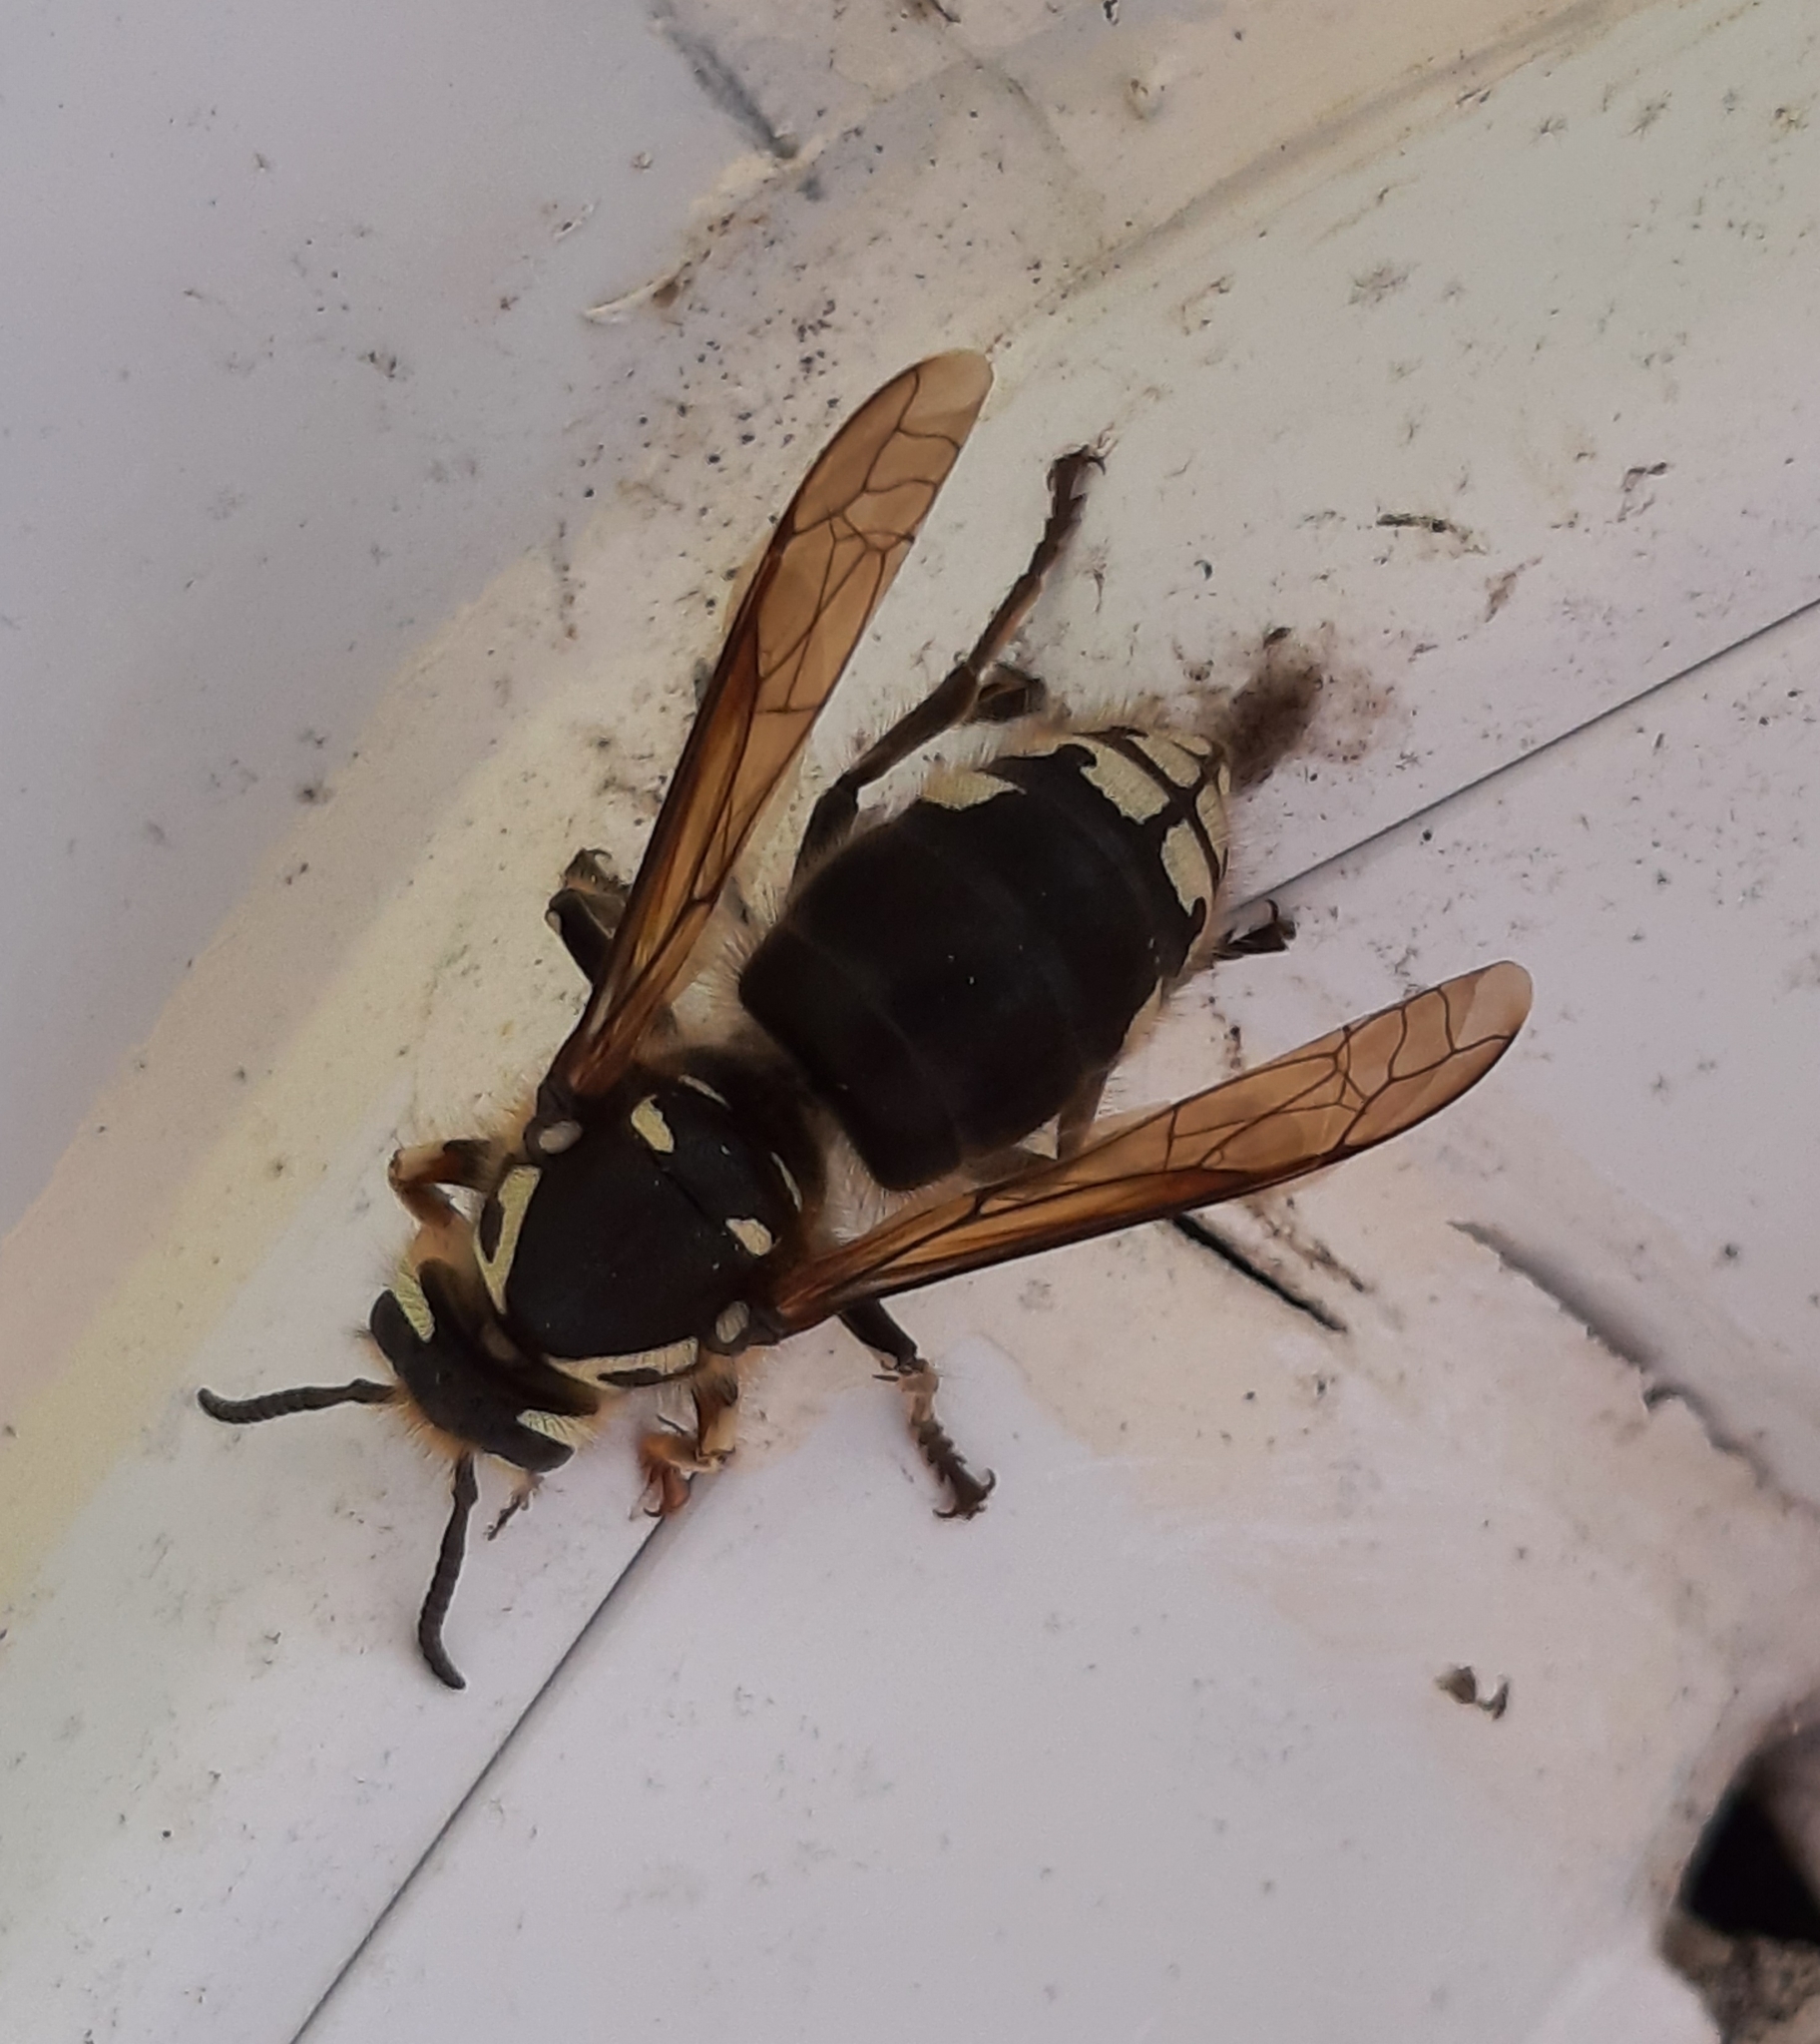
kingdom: Animalia
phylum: Arthropoda
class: Insecta
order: Hymenoptera
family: Vespidae
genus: Dolichovespula
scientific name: Dolichovespula maculata
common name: Bald-faced hornet
